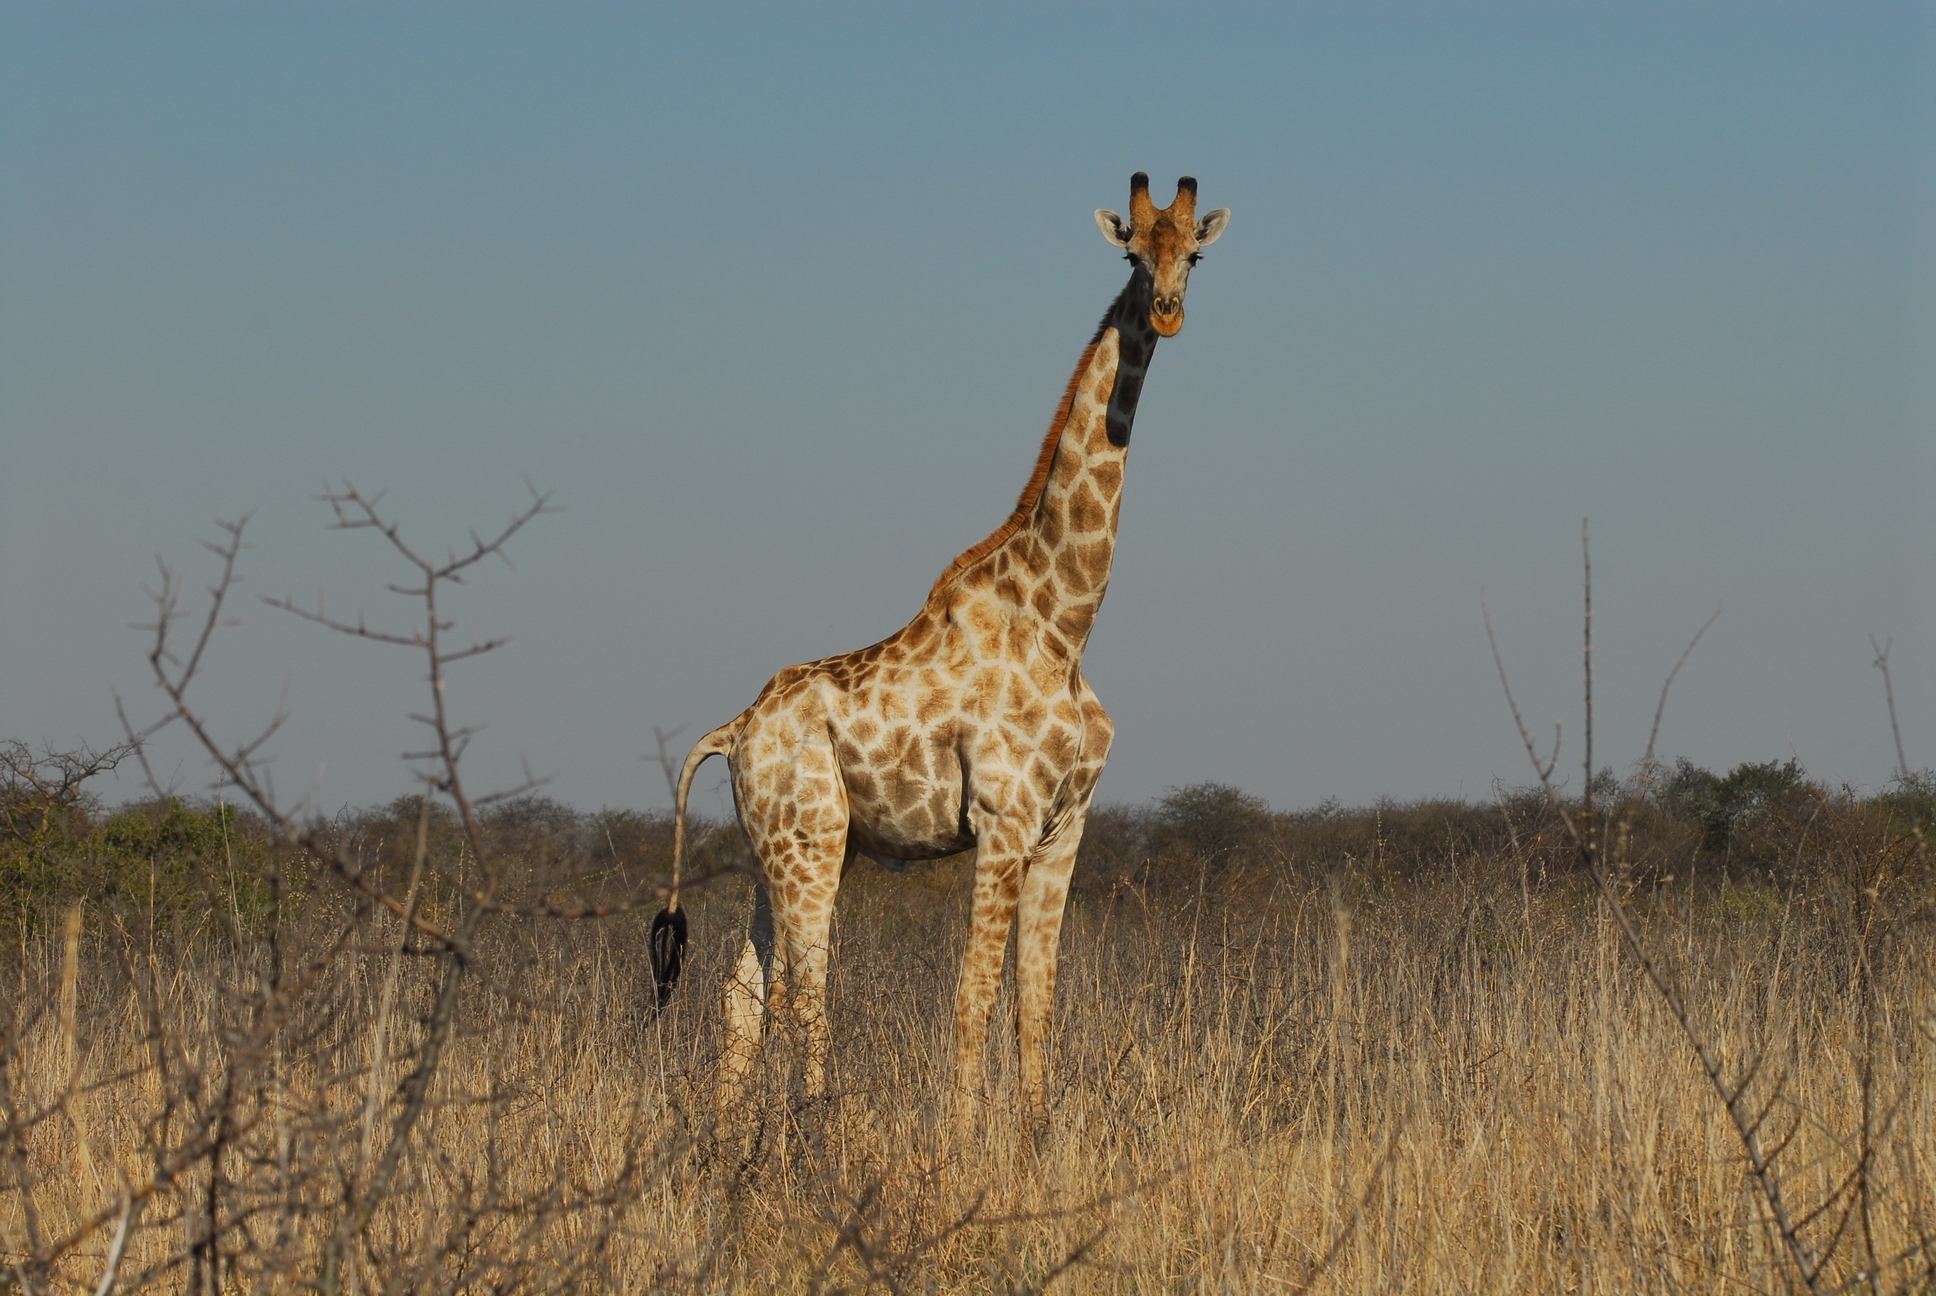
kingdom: Animalia
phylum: Chordata
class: Mammalia
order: Artiodactyla
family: Giraffidae
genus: Giraffa
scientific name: Giraffa giraffa
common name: Southern giraffe
